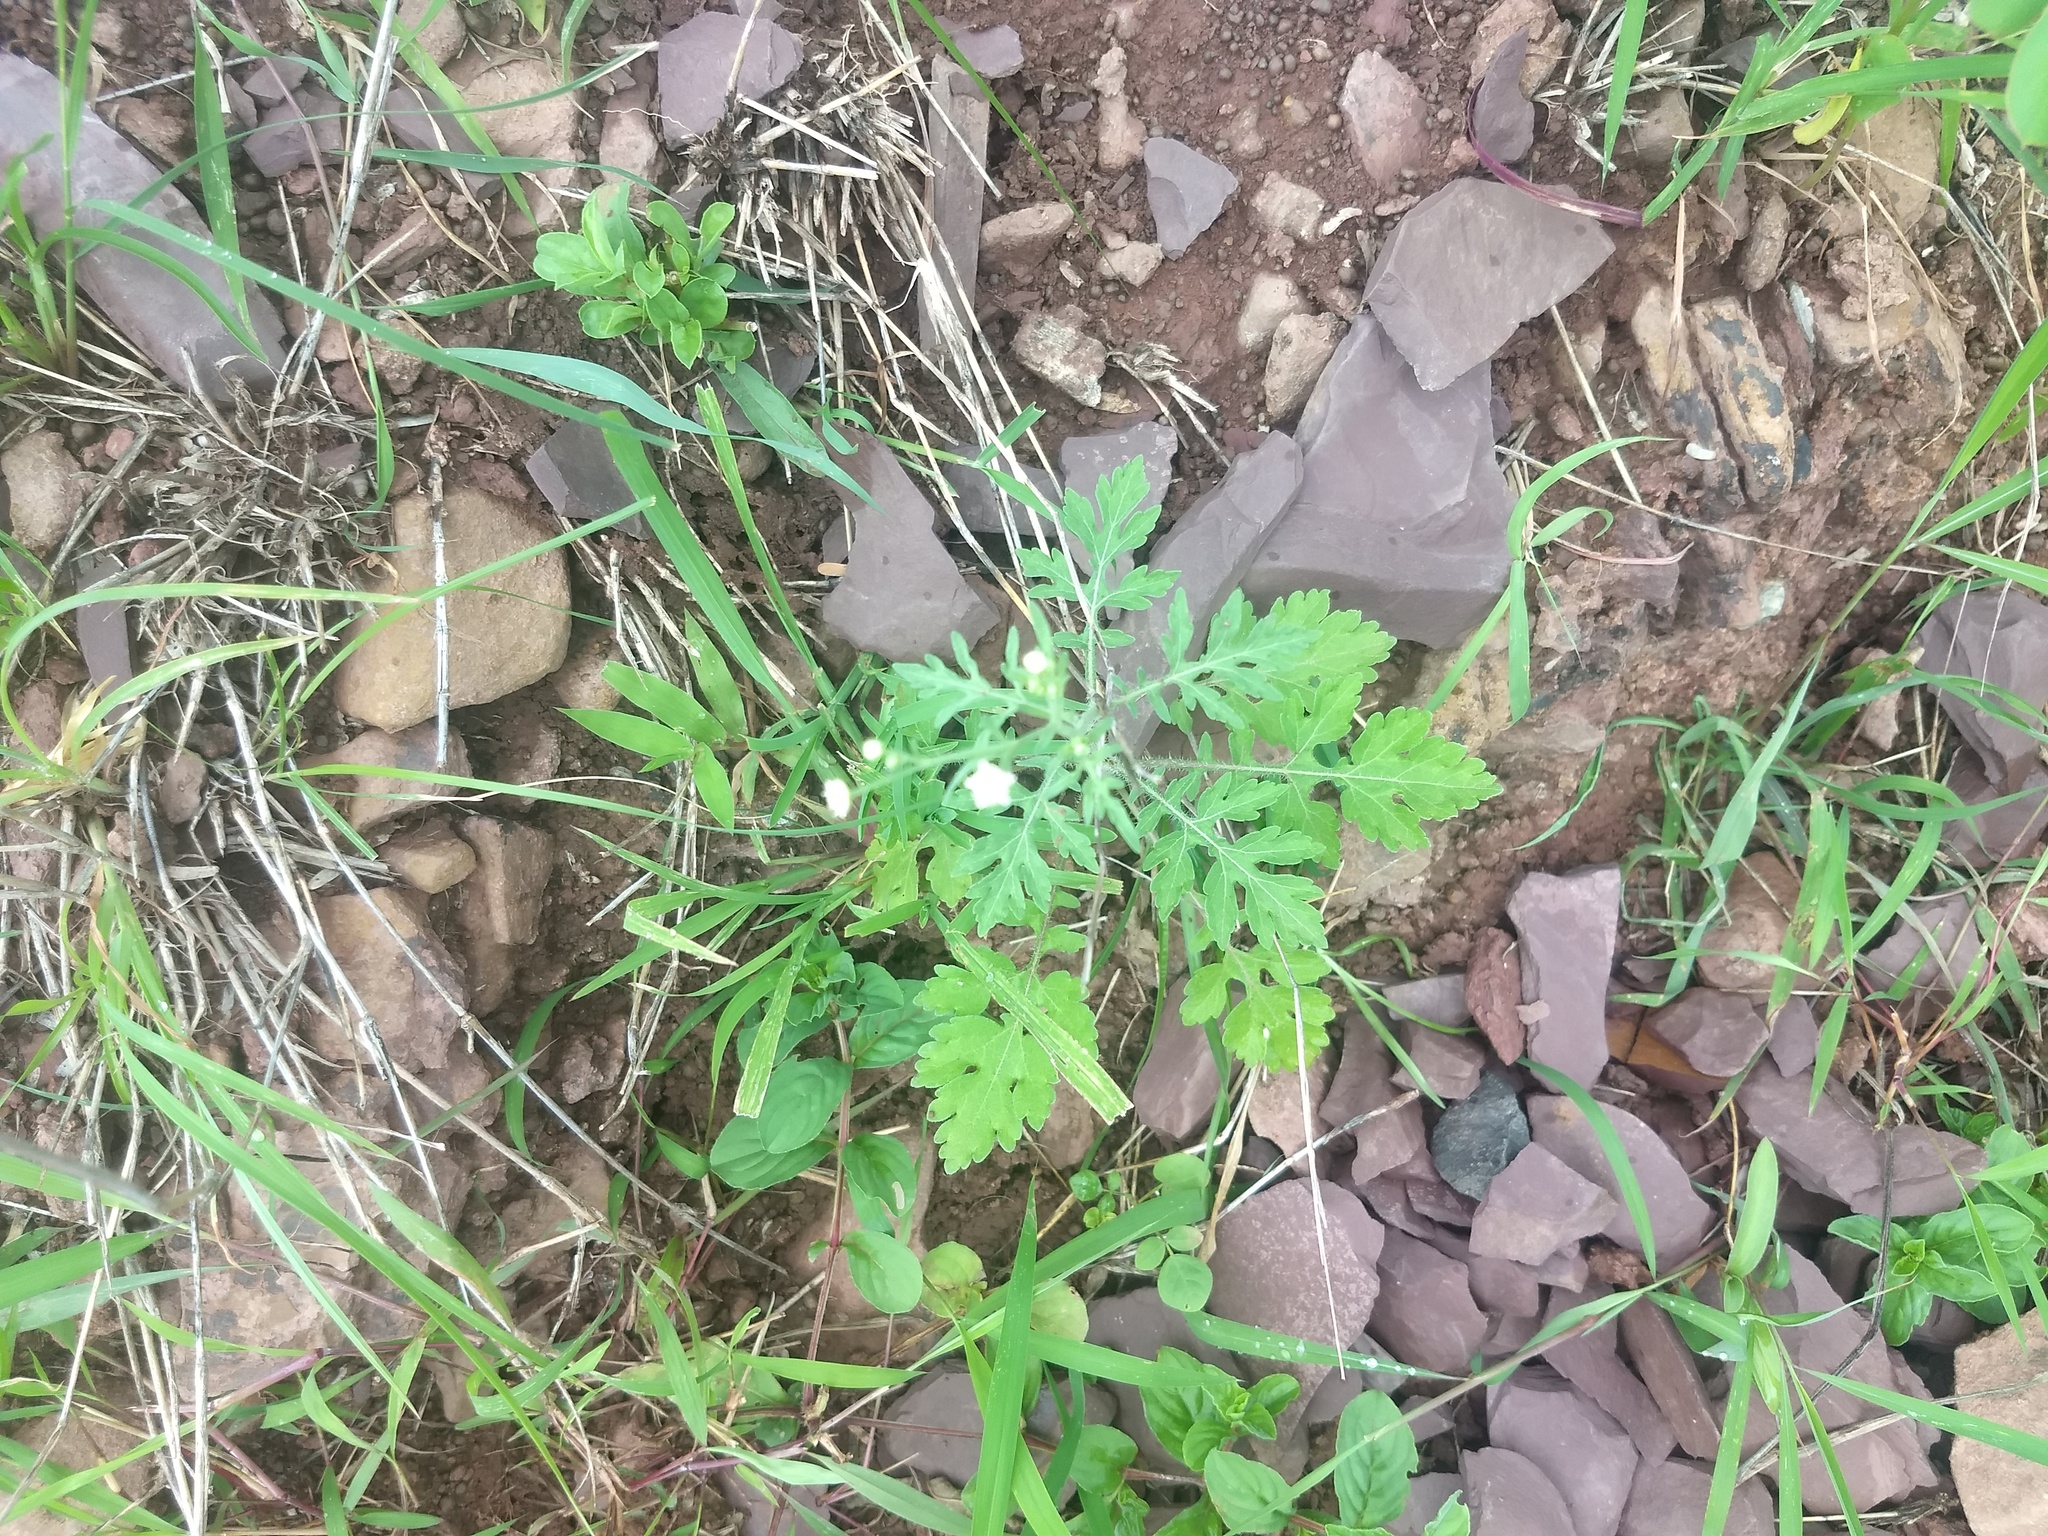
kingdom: Plantae
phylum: Tracheophyta
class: Magnoliopsida
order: Asterales
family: Asteraceae
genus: Parthenium
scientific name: Parthenium hysterophorus
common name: Santa maria feverfew
